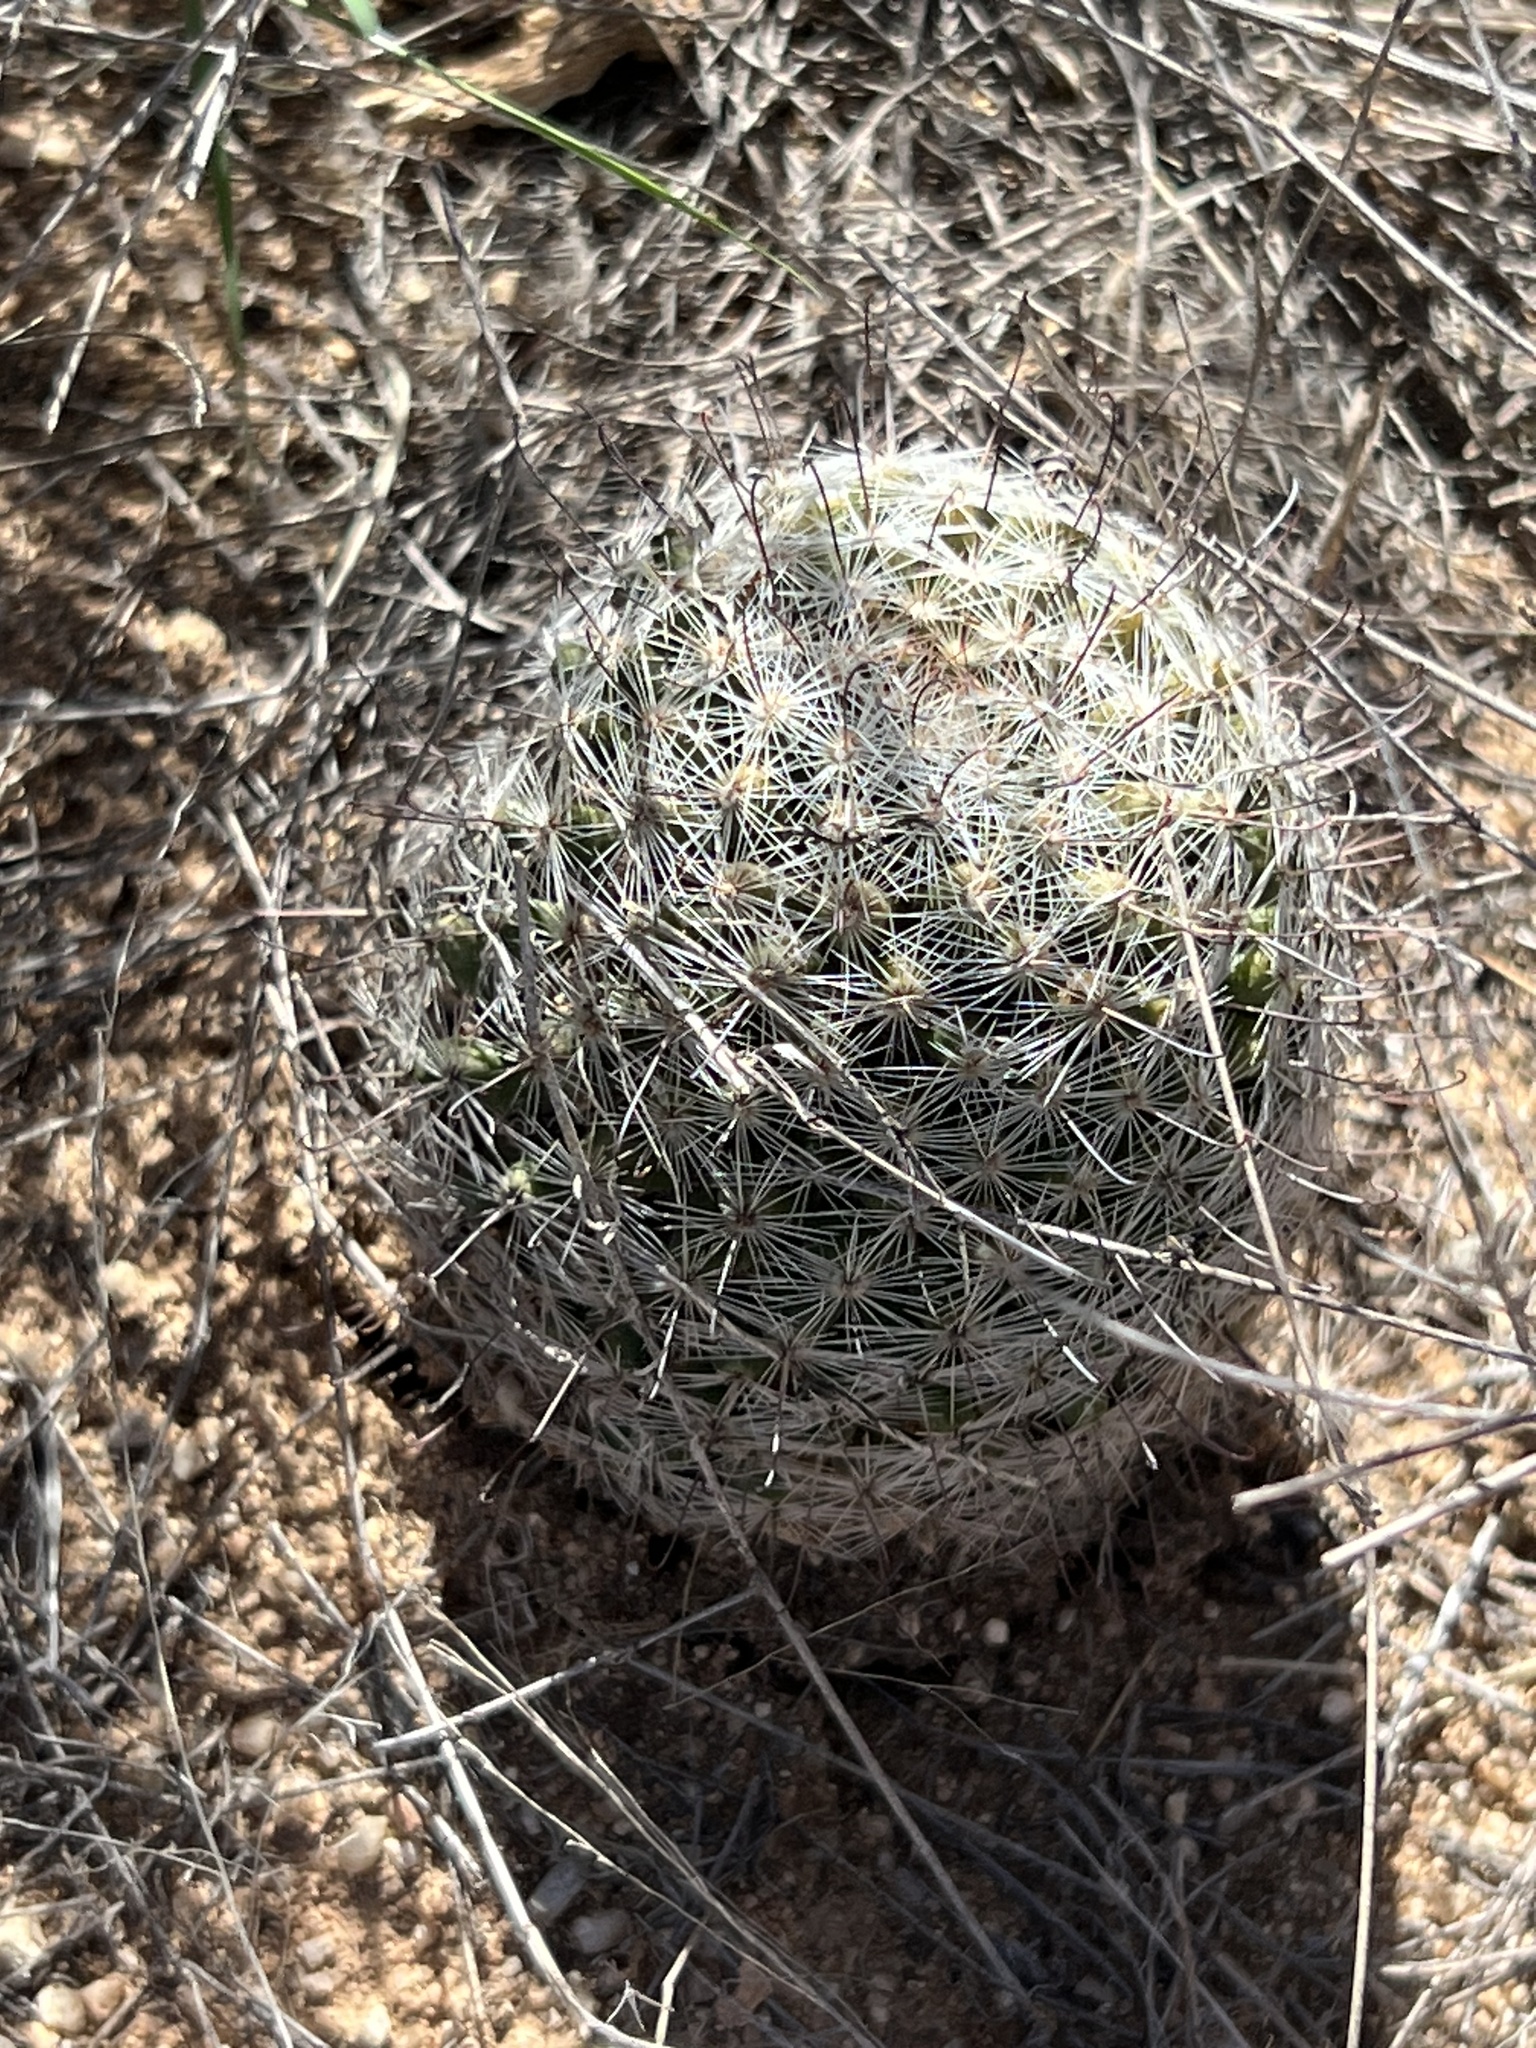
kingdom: Plantae
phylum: Tracheophyta
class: Magnoliopsida
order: Caryophyllales
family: Cactaceae
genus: Cochemiea
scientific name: Cochemiea grahamii
